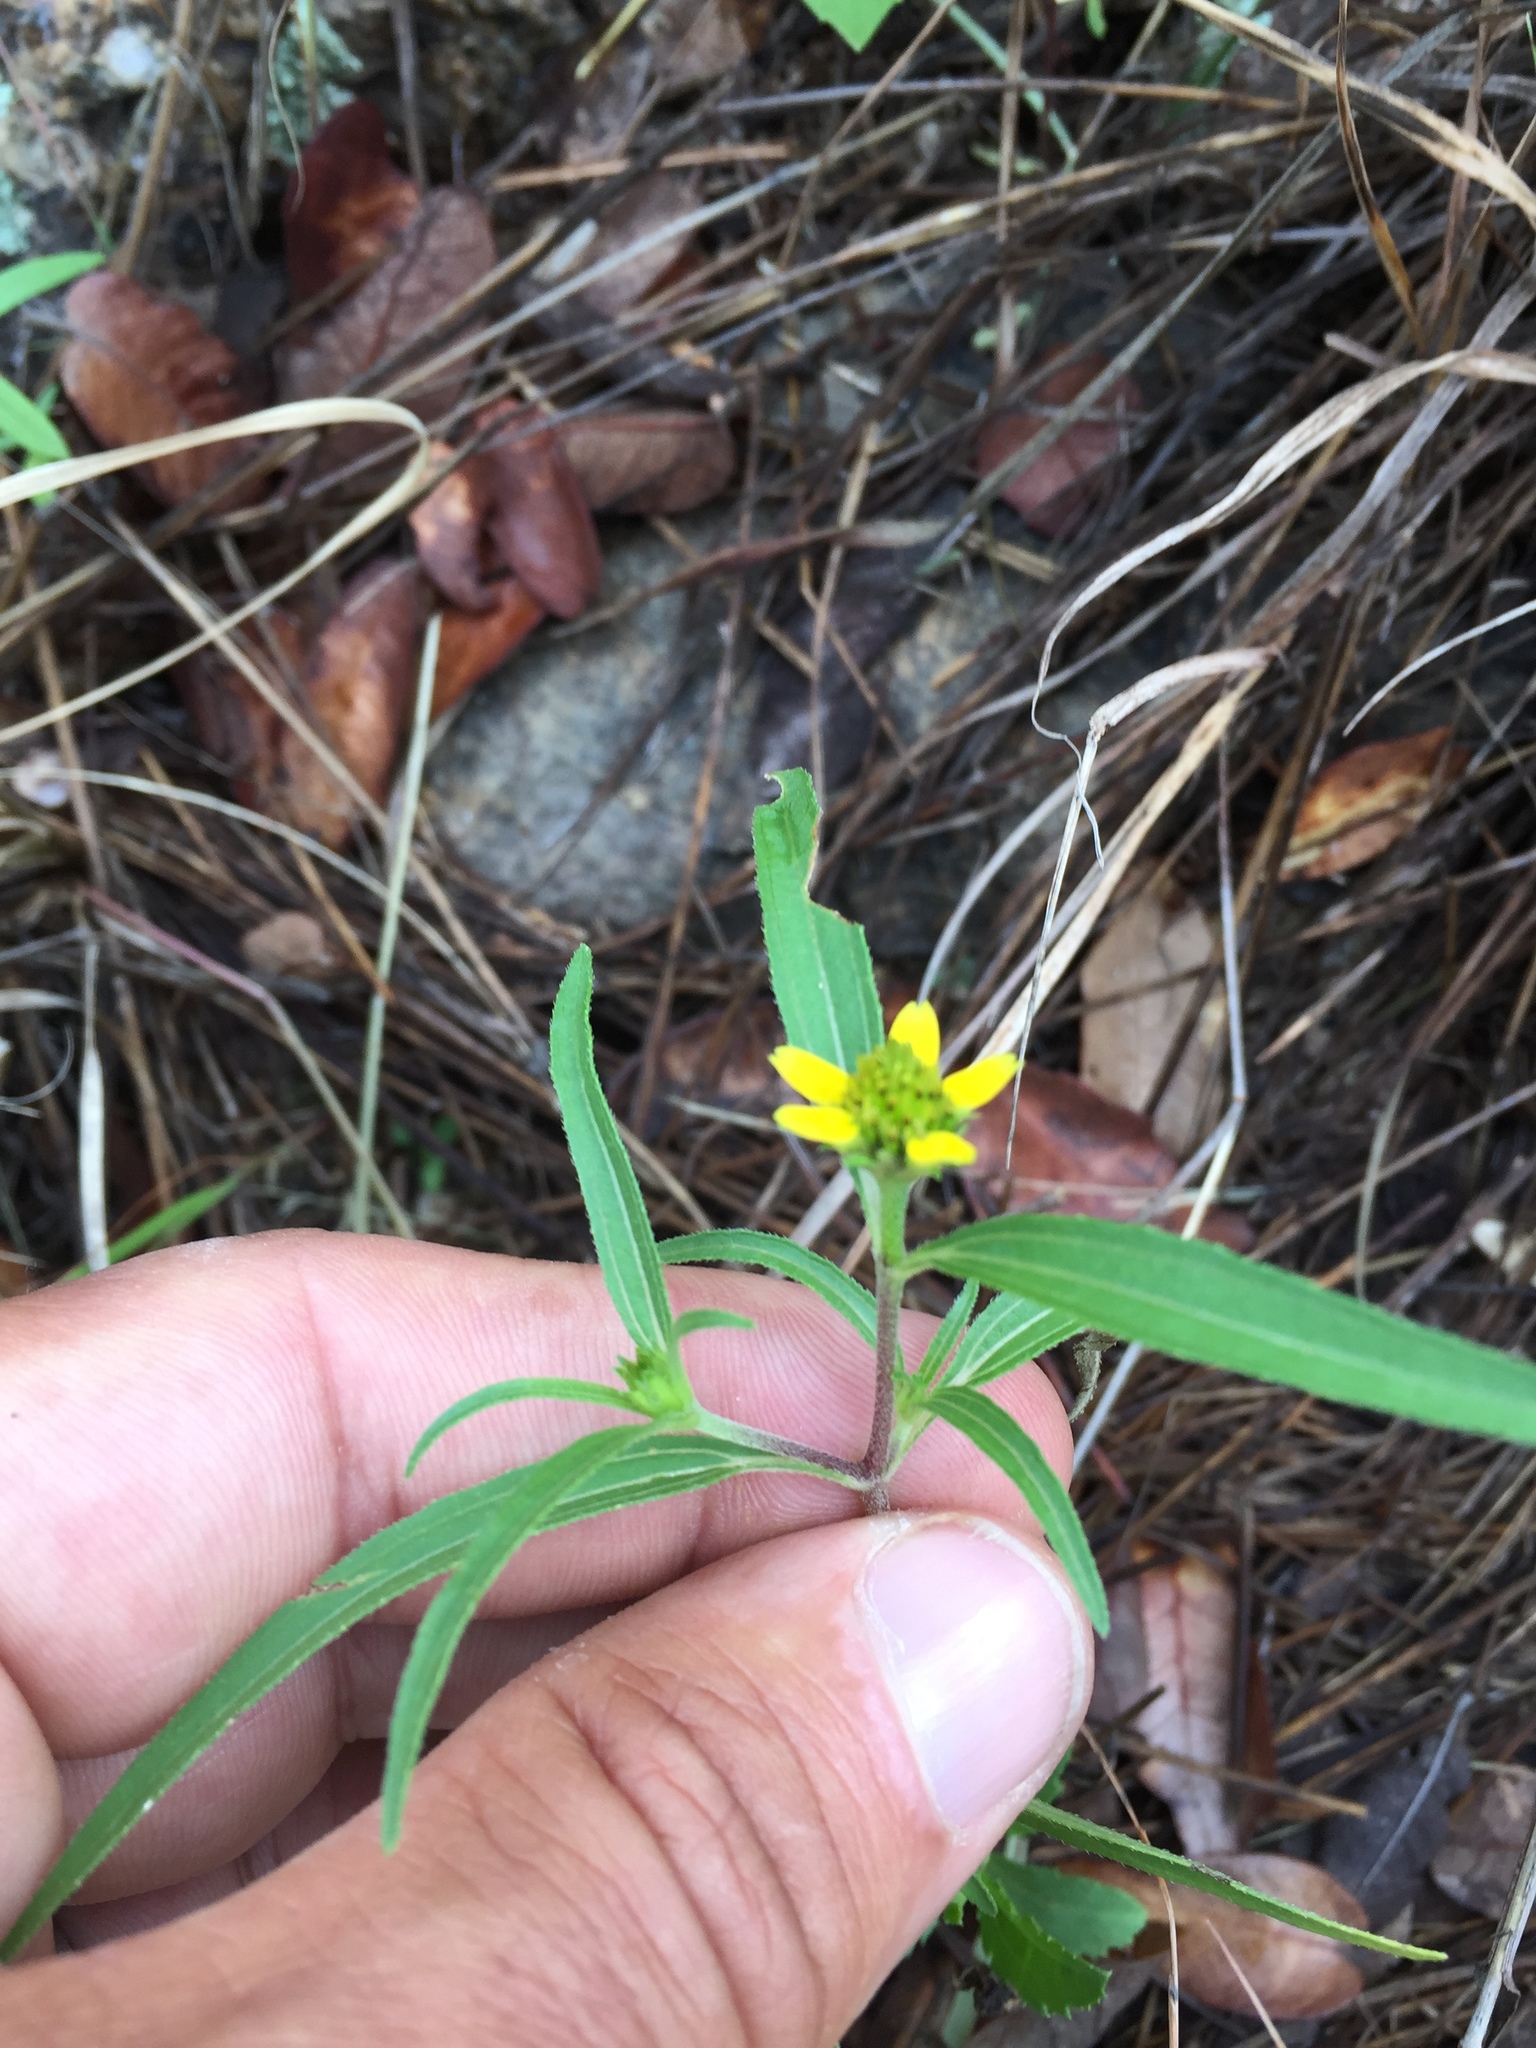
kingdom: Plantae
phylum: Tracheophyta
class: Magnoliopsida
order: Asterales
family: Asteraceae
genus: Sanvitalia
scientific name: Sanvitalia abertii
